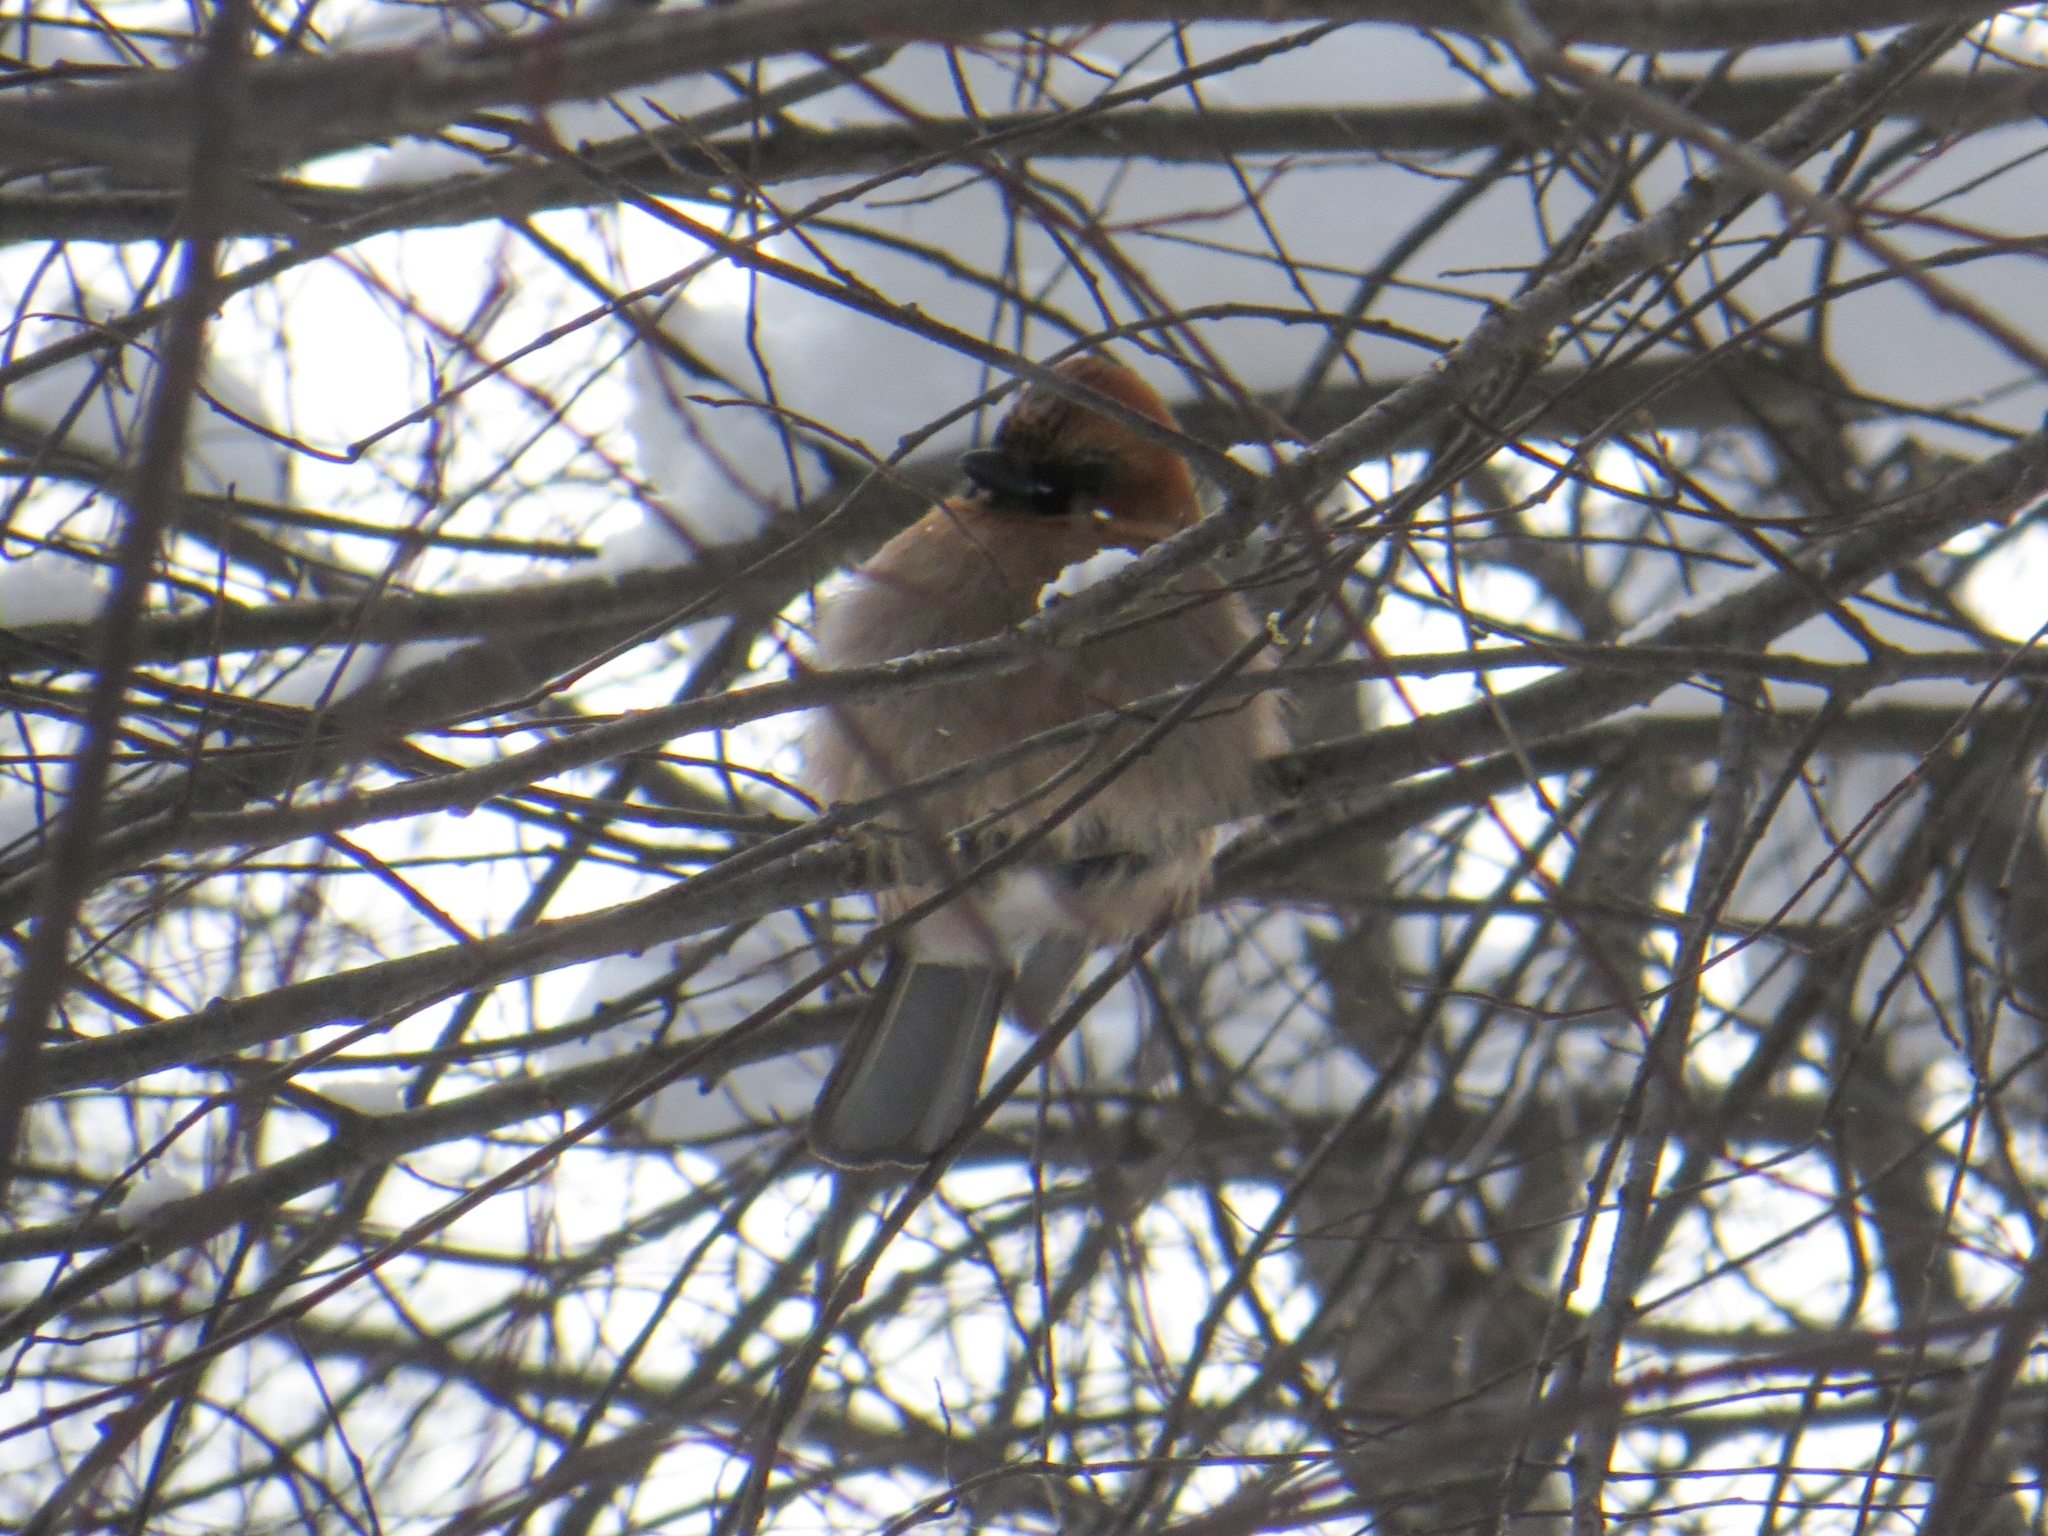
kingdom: Animalia
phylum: Chordata
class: Aves
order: Passeriformes
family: Corvidae
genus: Garrulus
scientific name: Garrulus glandarius
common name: Eurasian jay
